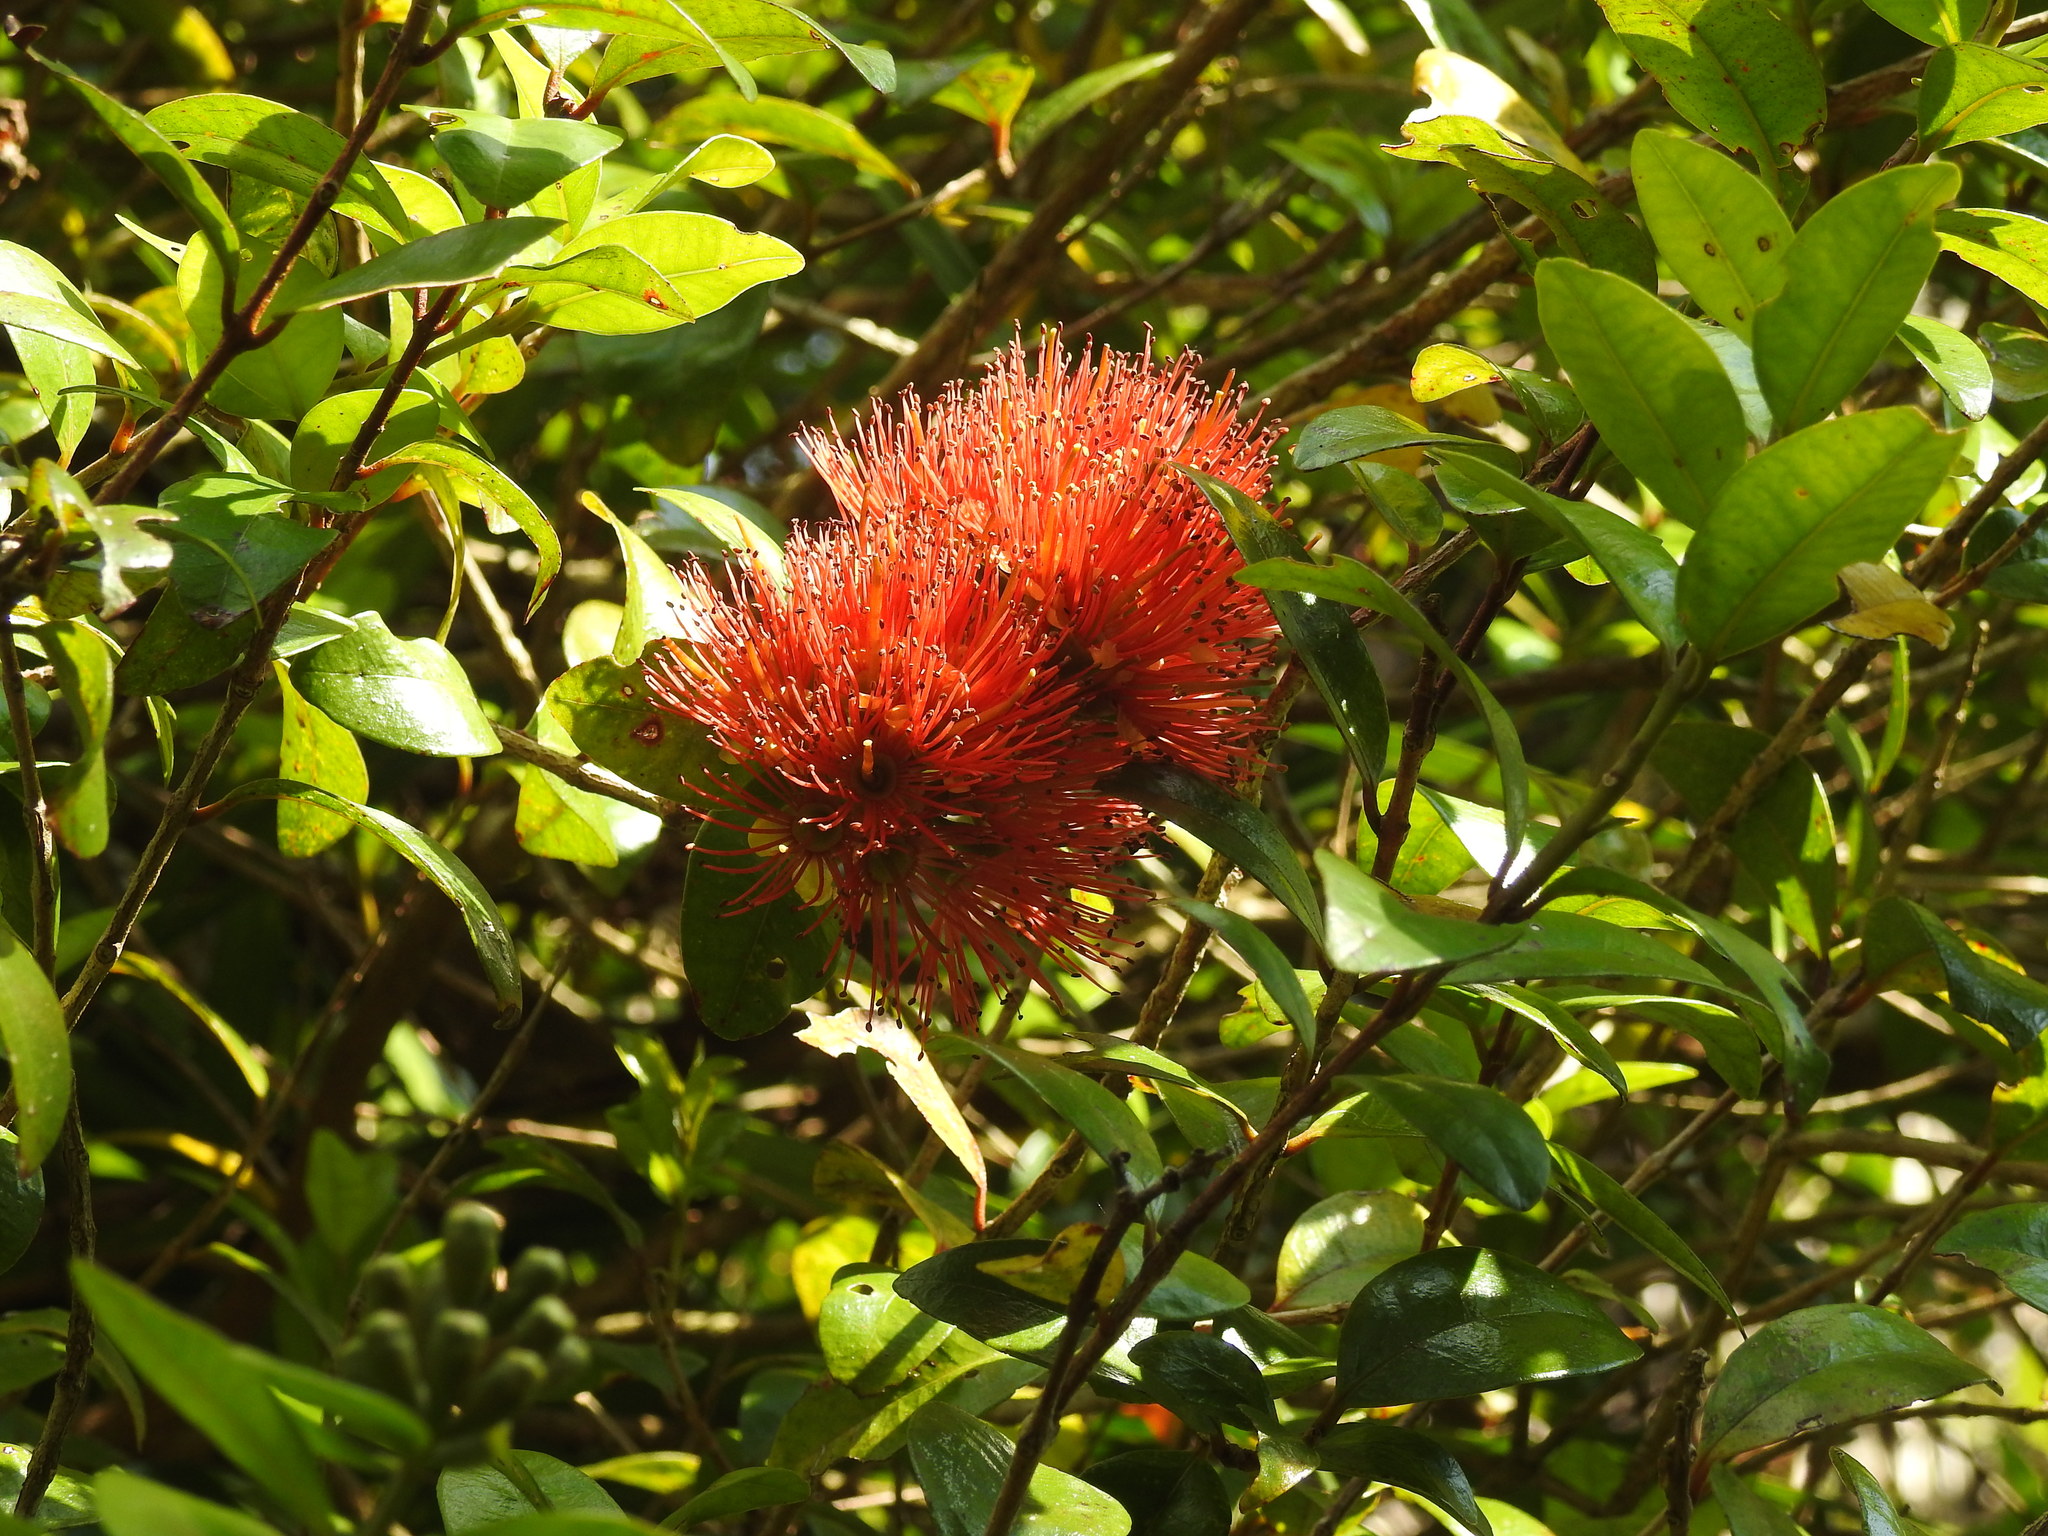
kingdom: Plantae
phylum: Tracheophyta
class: Magnoliopsida
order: Myrtales
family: Myrtaceae
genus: Metrosideros
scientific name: Metrosideros fulgens
